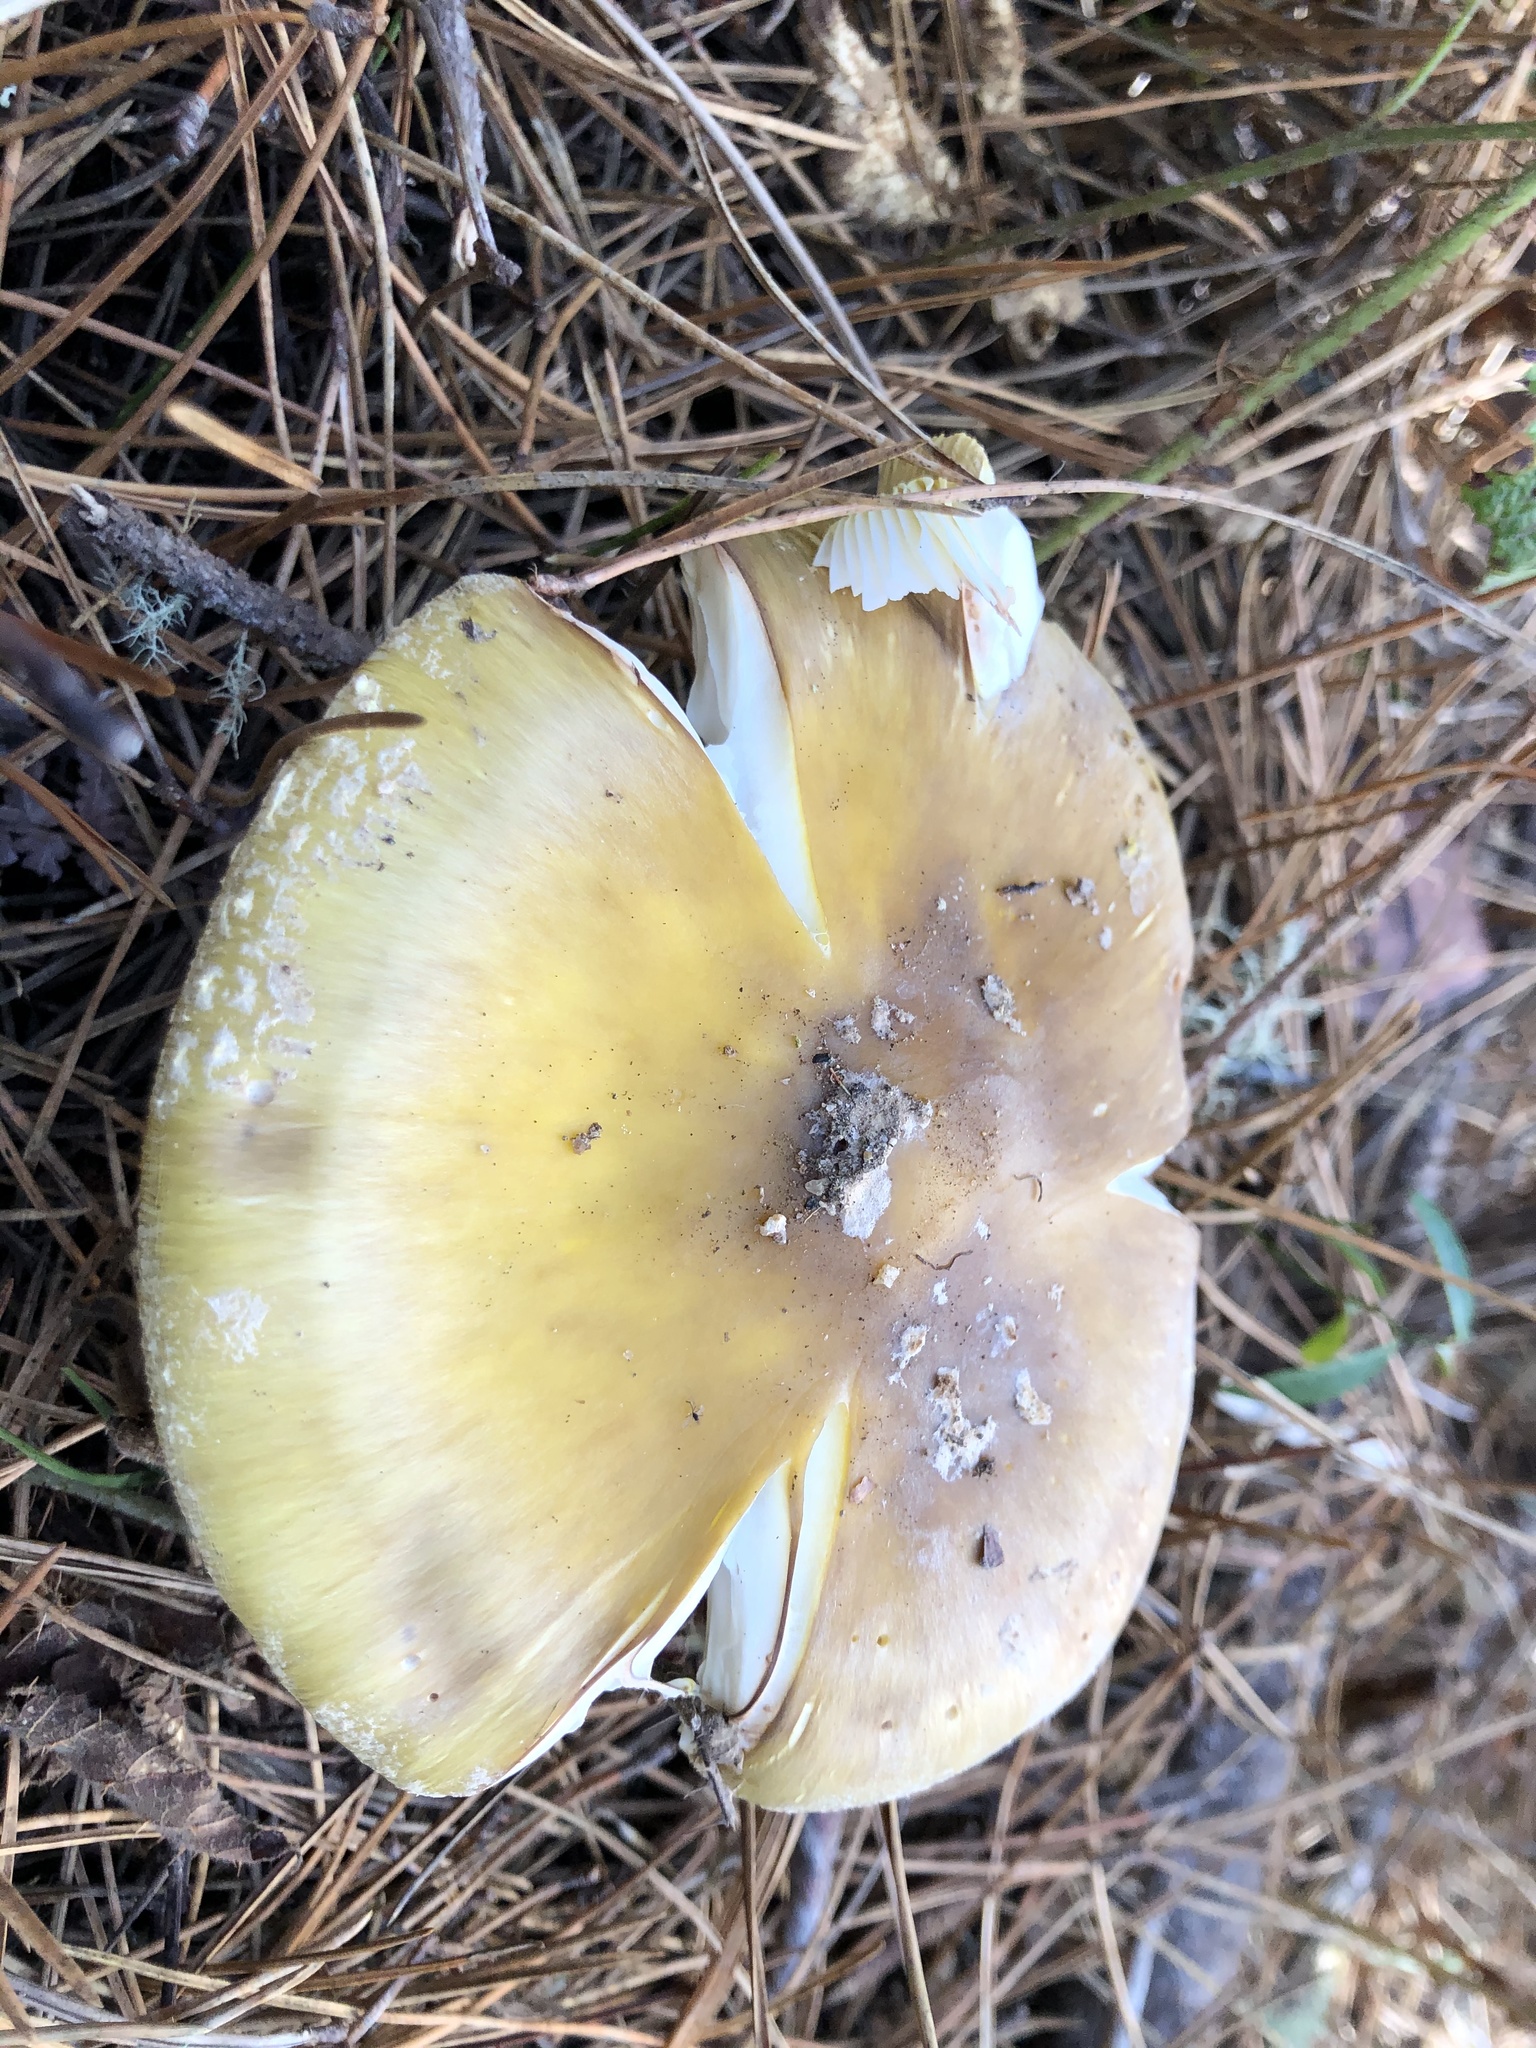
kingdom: Fungi
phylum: Basidiomycota
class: Agaricomycetes
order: Agaricales
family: Amanitaceae
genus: Amanita
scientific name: Amanita augusta
